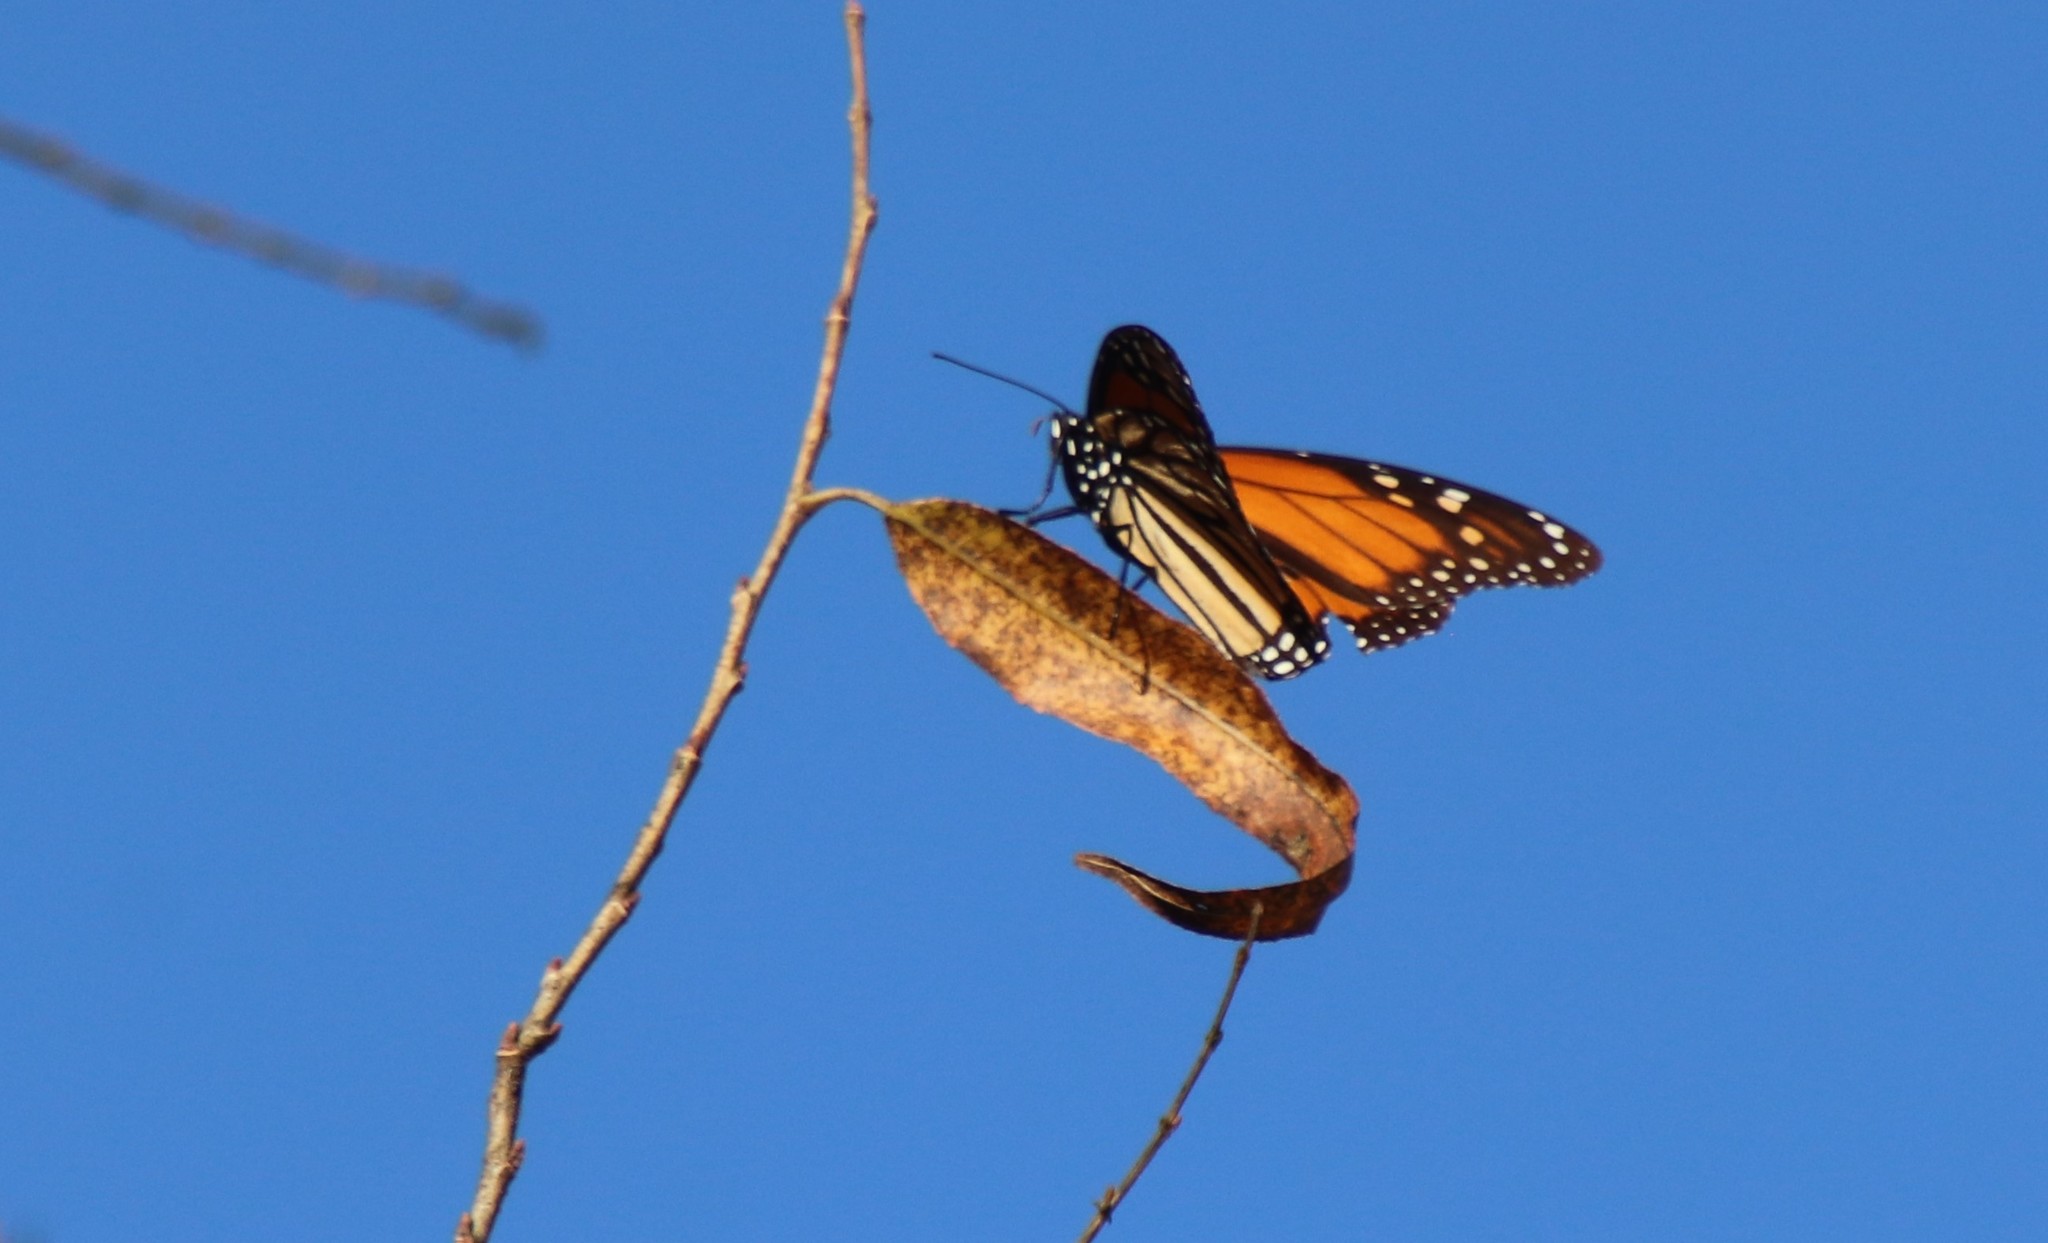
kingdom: Animalia
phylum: Arthropoda
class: Insecta
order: Lepidoptera
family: Nymphalidae
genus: Danaus
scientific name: Danaus plexippus
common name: Monarch
